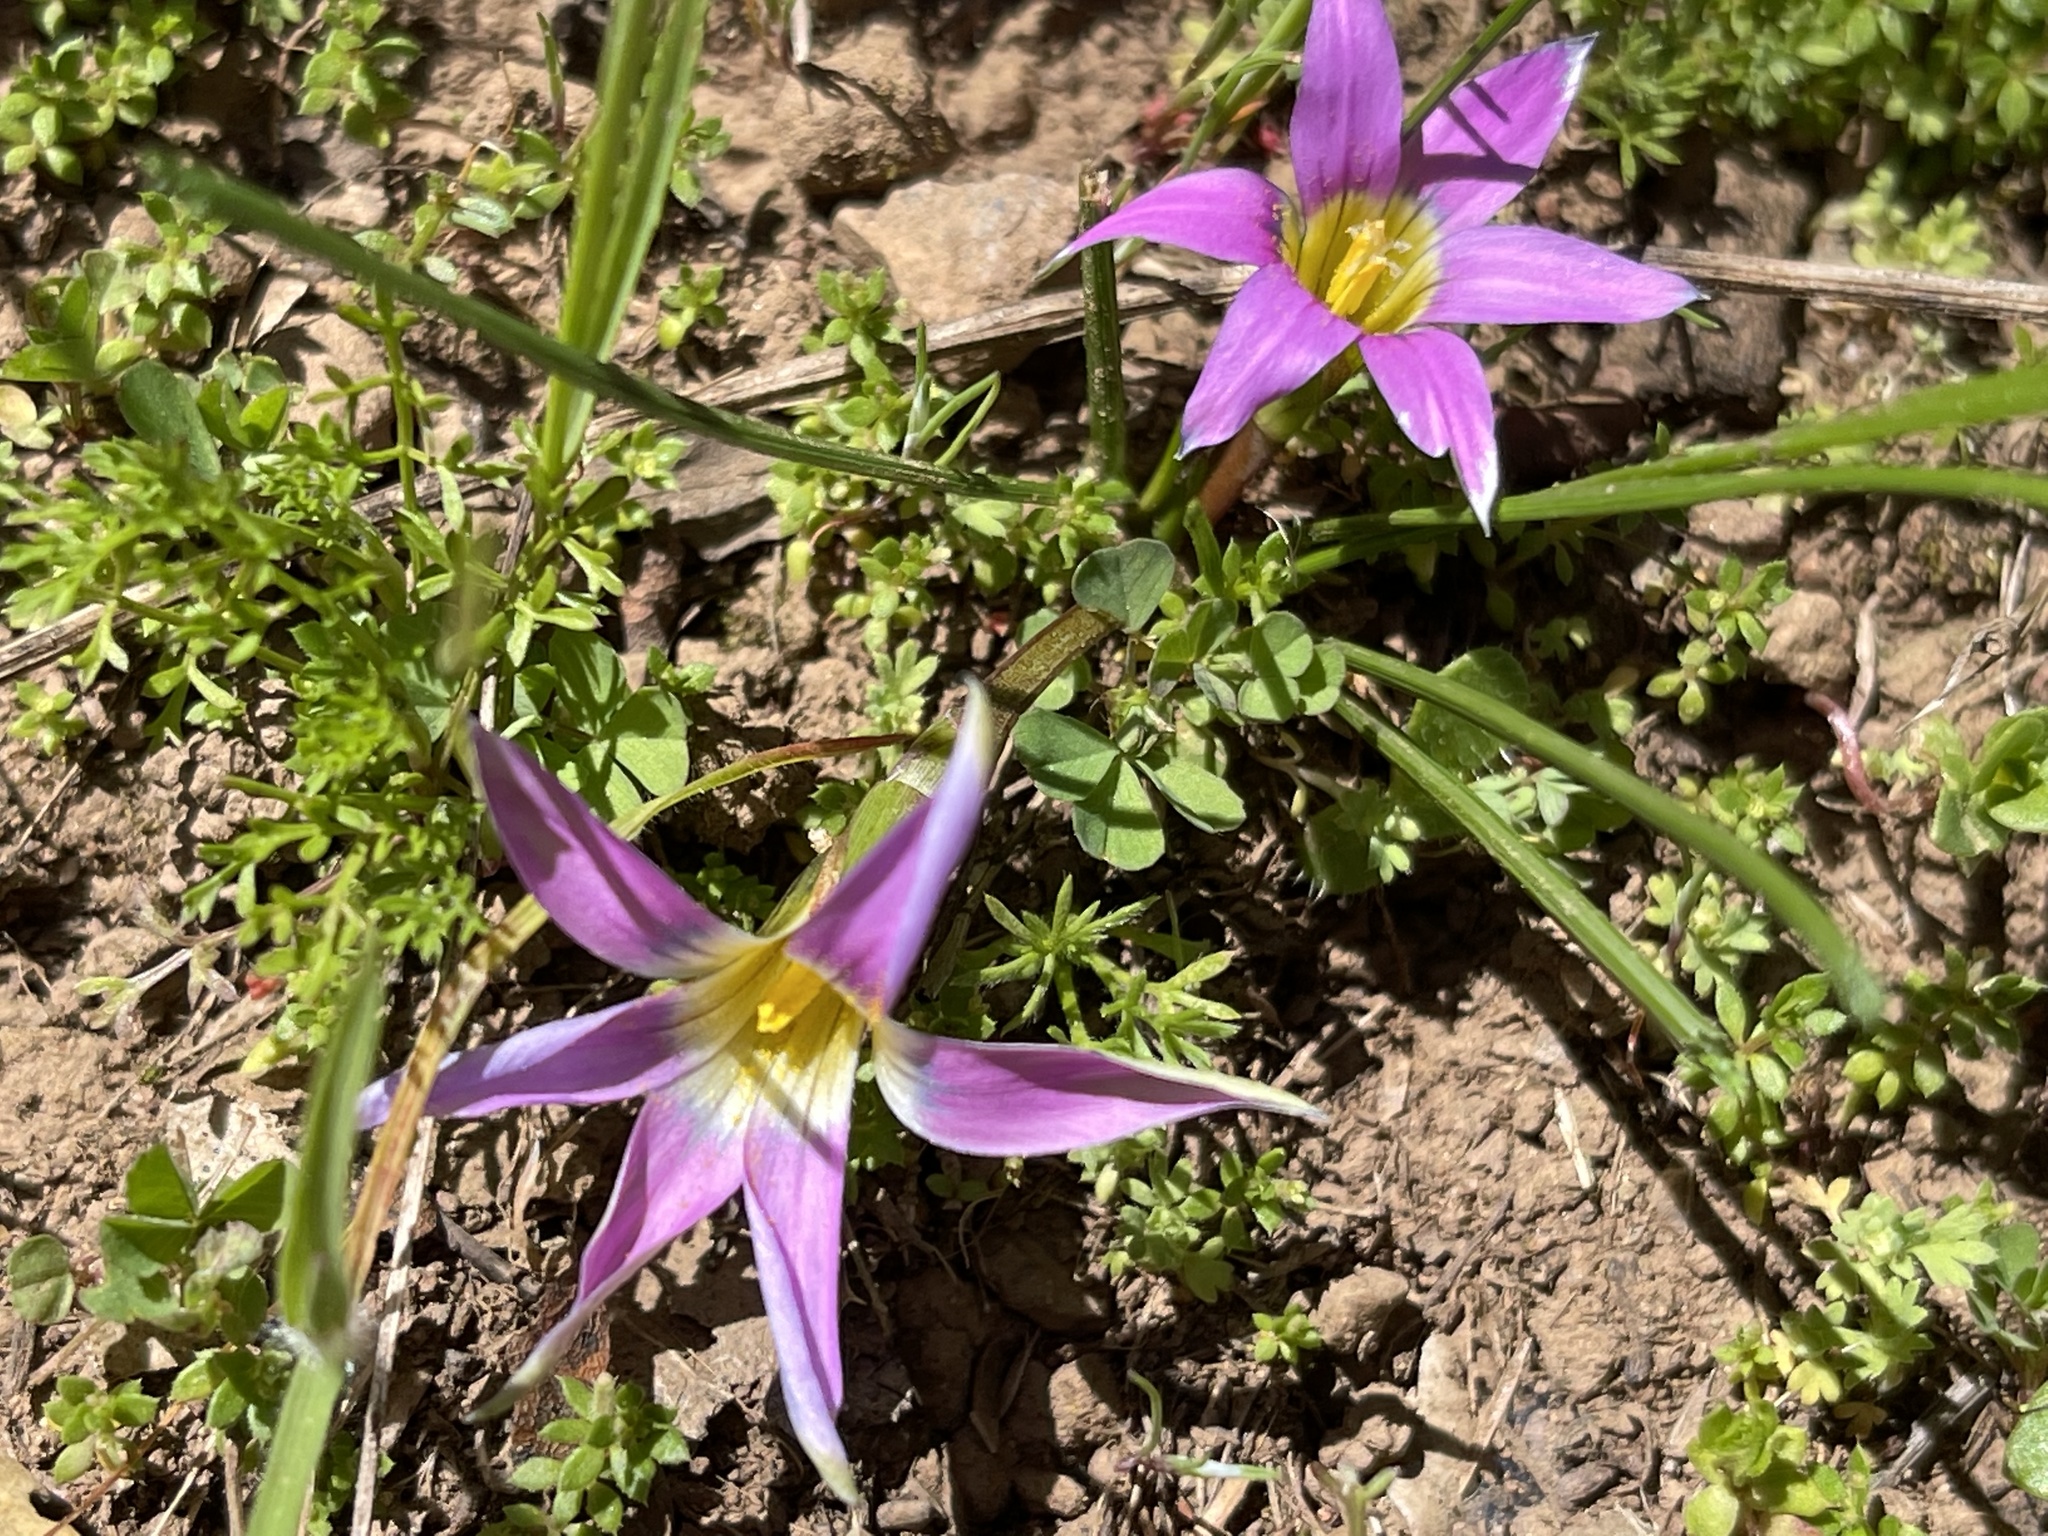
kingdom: Plantae
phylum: Tracheophyta
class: Liliopsida
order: Asparagales
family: Iridaceae
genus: Romulea
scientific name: Romulea rosea
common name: Oniongrass
